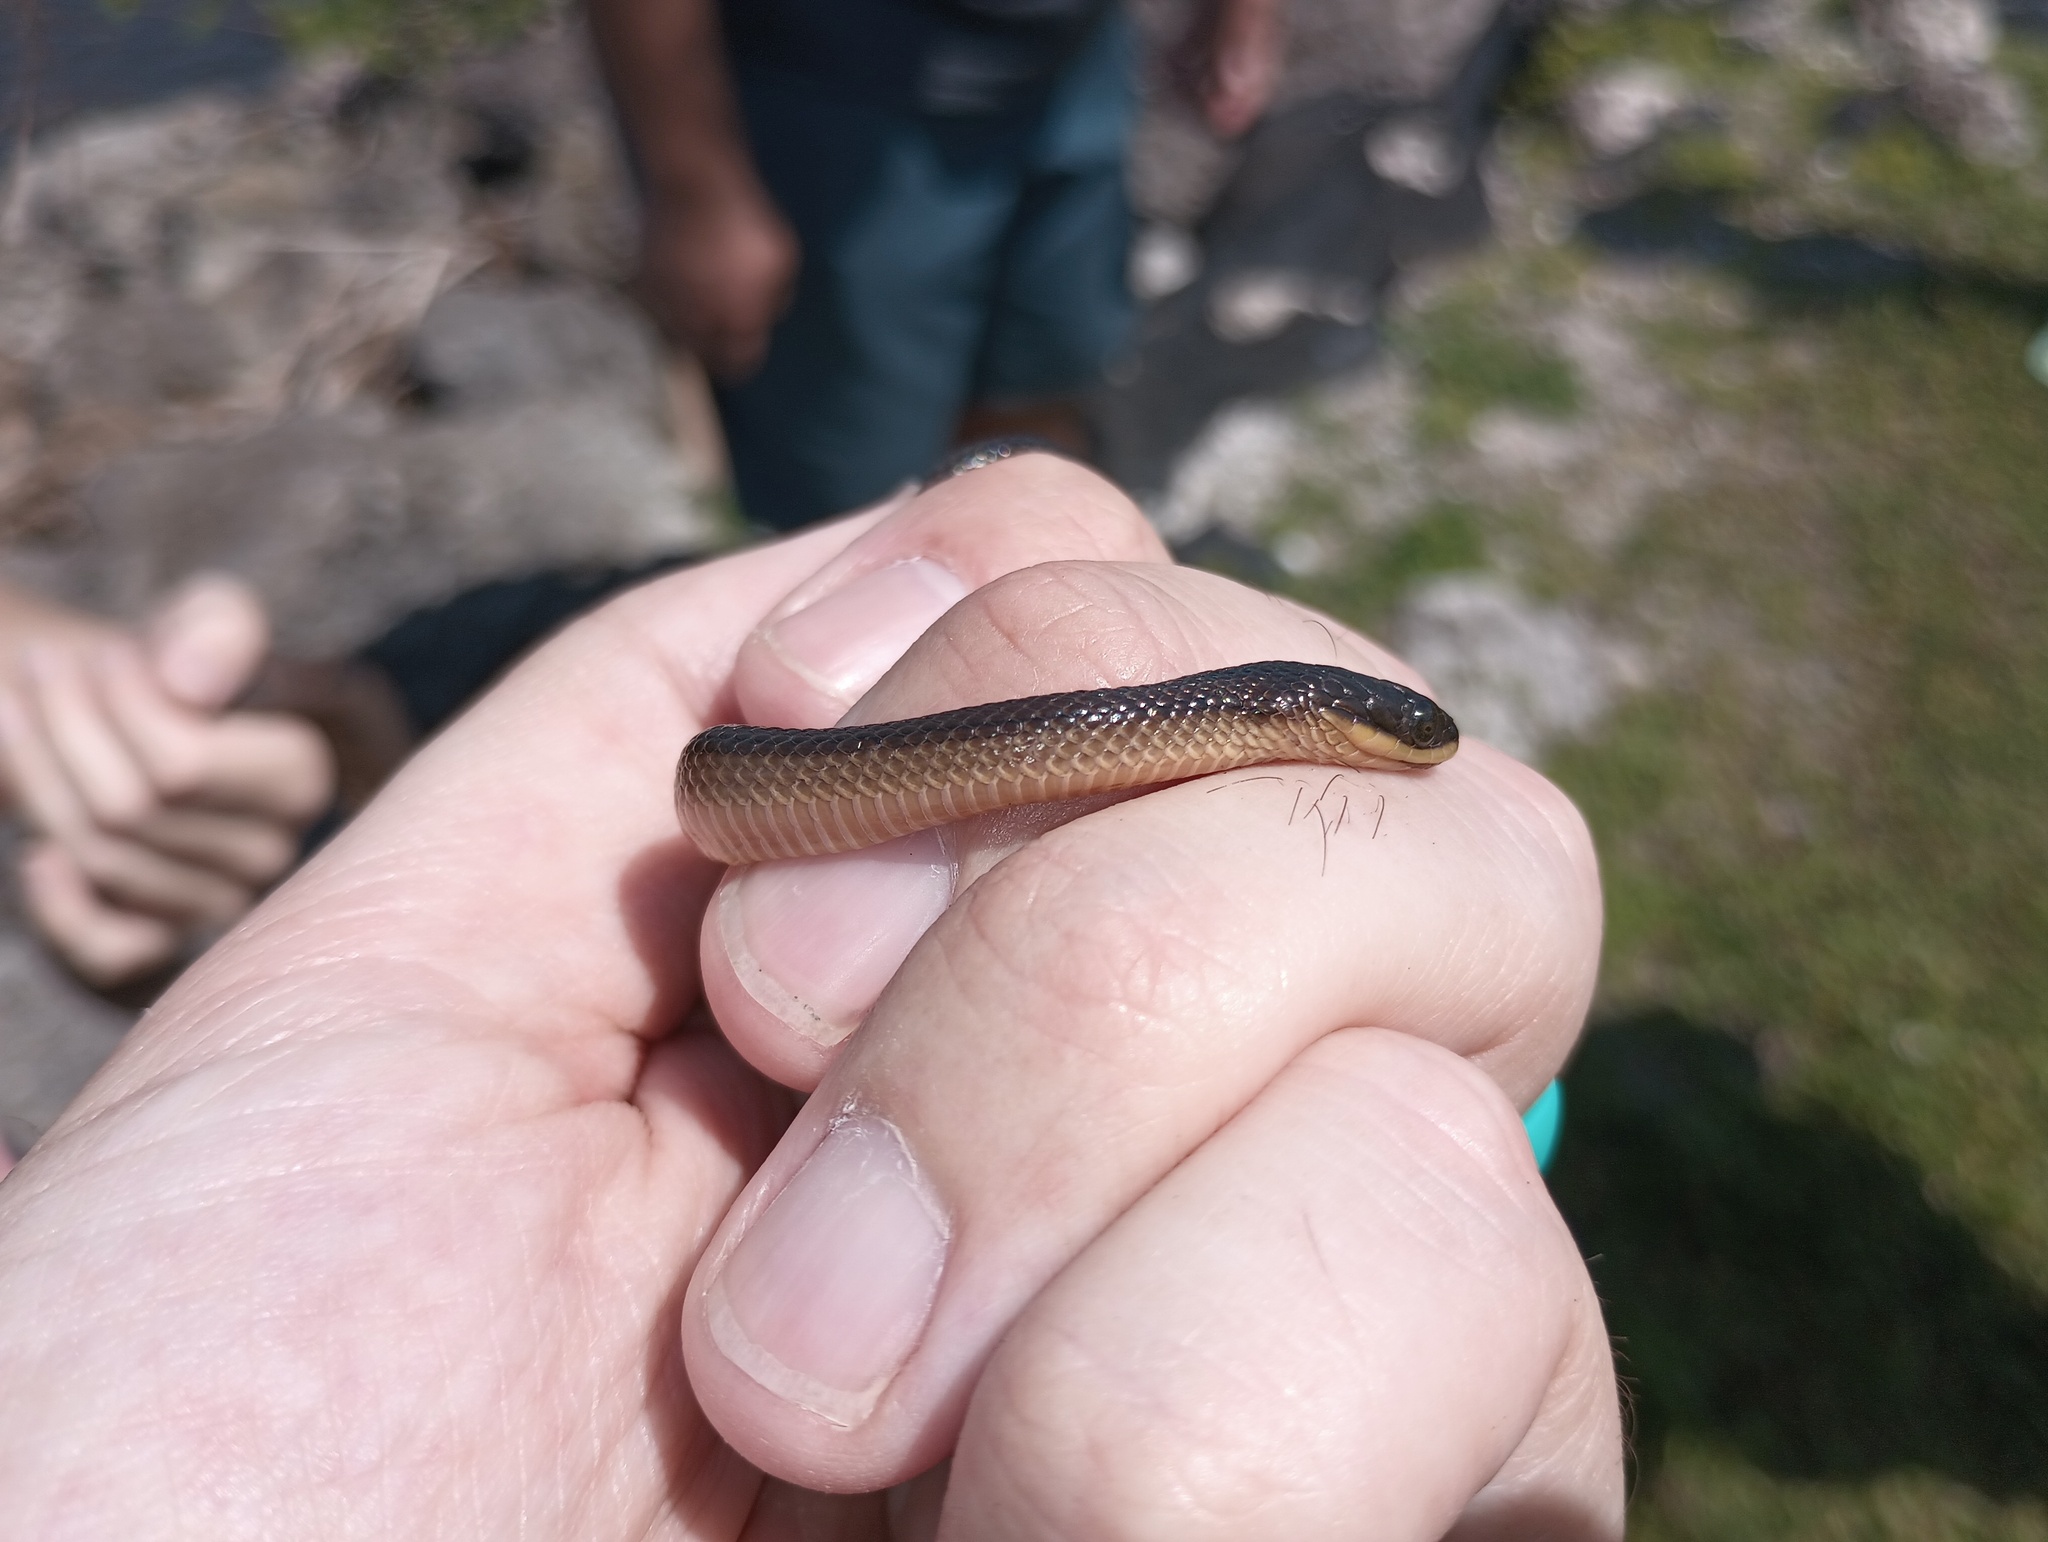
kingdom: Animalia
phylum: Chordata
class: Squamata
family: Colubridae
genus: Liodytes
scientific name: Liodytes alleni
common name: Striped crayfish snake
